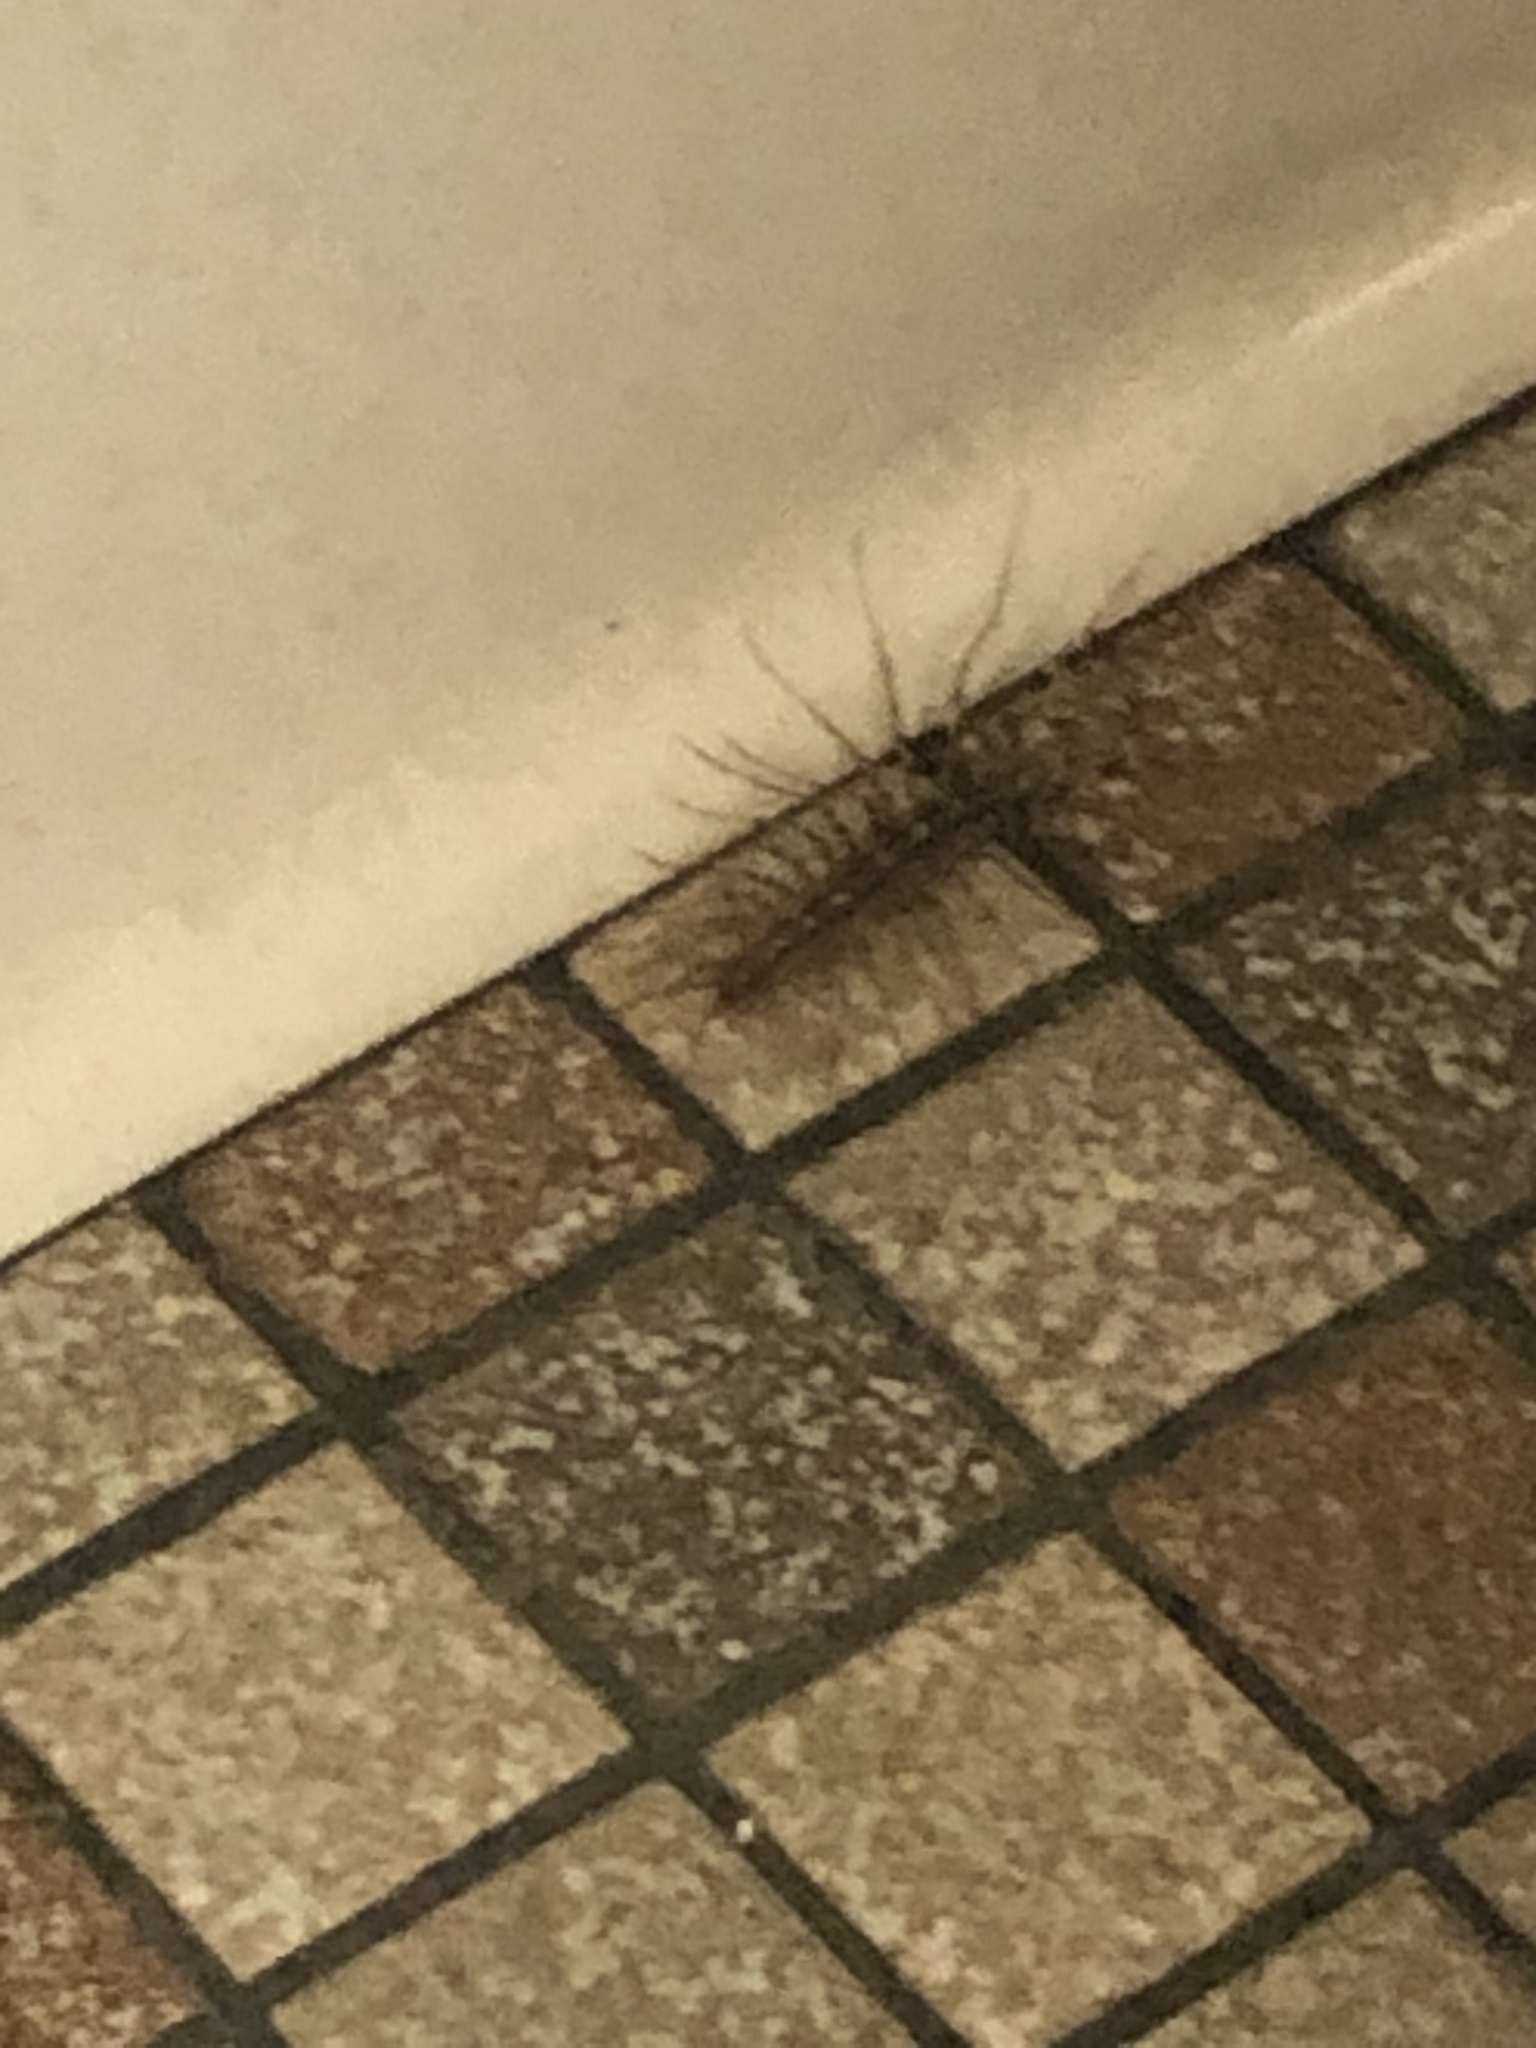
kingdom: Animalia
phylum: Arthropoda
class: Chilopoda
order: Scutigeromorpha
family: Scutigeridae
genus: Scutigera
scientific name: Scutigera coleoptrata
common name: House centipede
